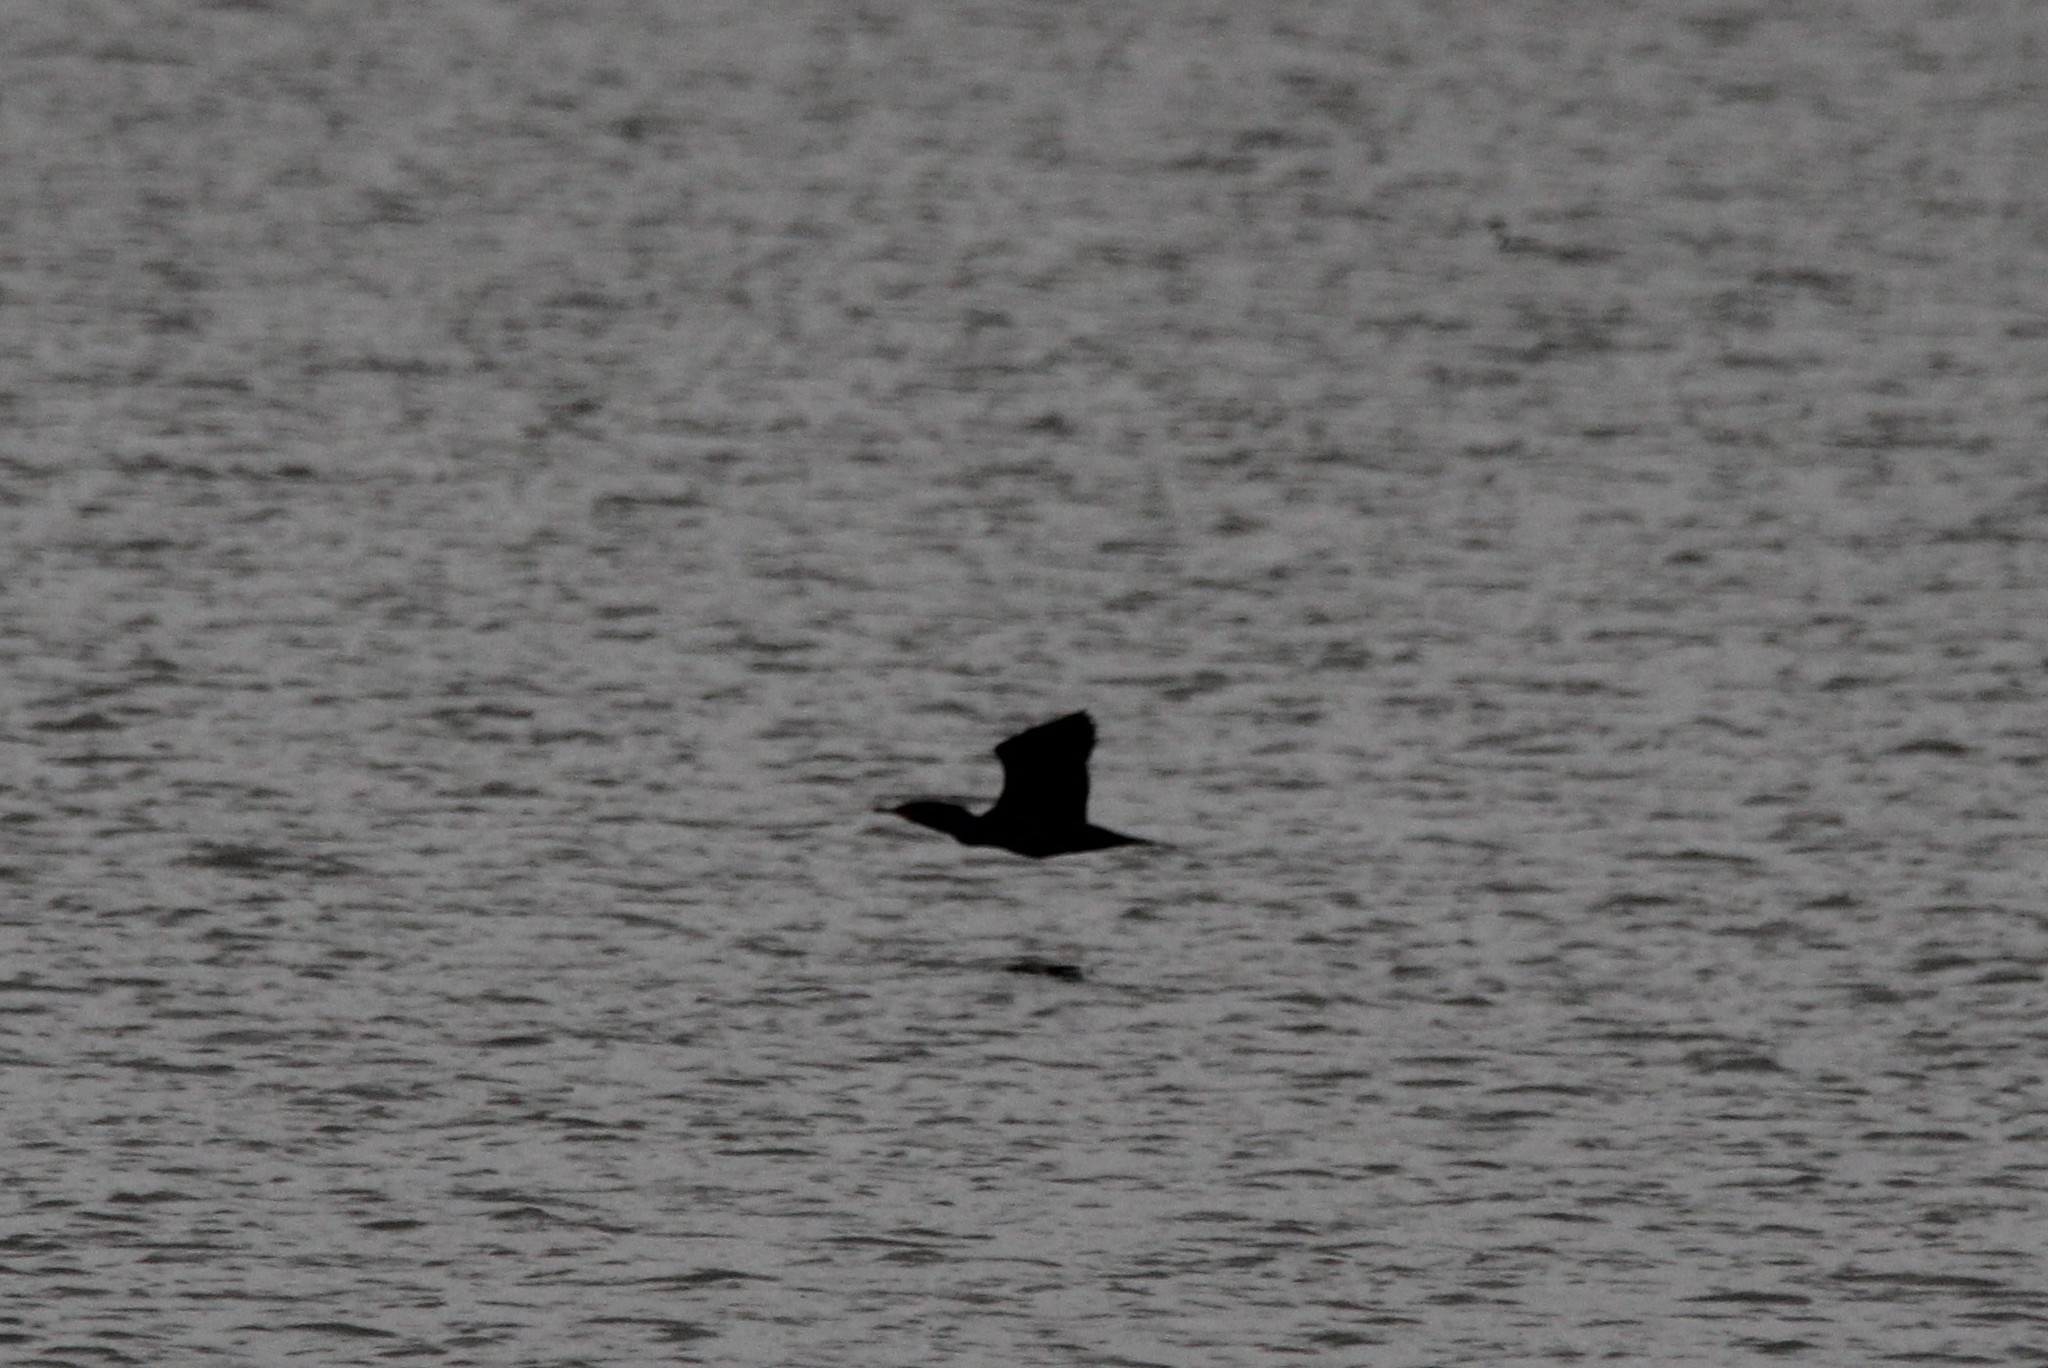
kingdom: Animalia
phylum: Chordata
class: Aves
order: Suliformes
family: Phalacrocoracidae
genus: Phalacrocorax
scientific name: Phalacrocorax auritus
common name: Double-crested cormorant
